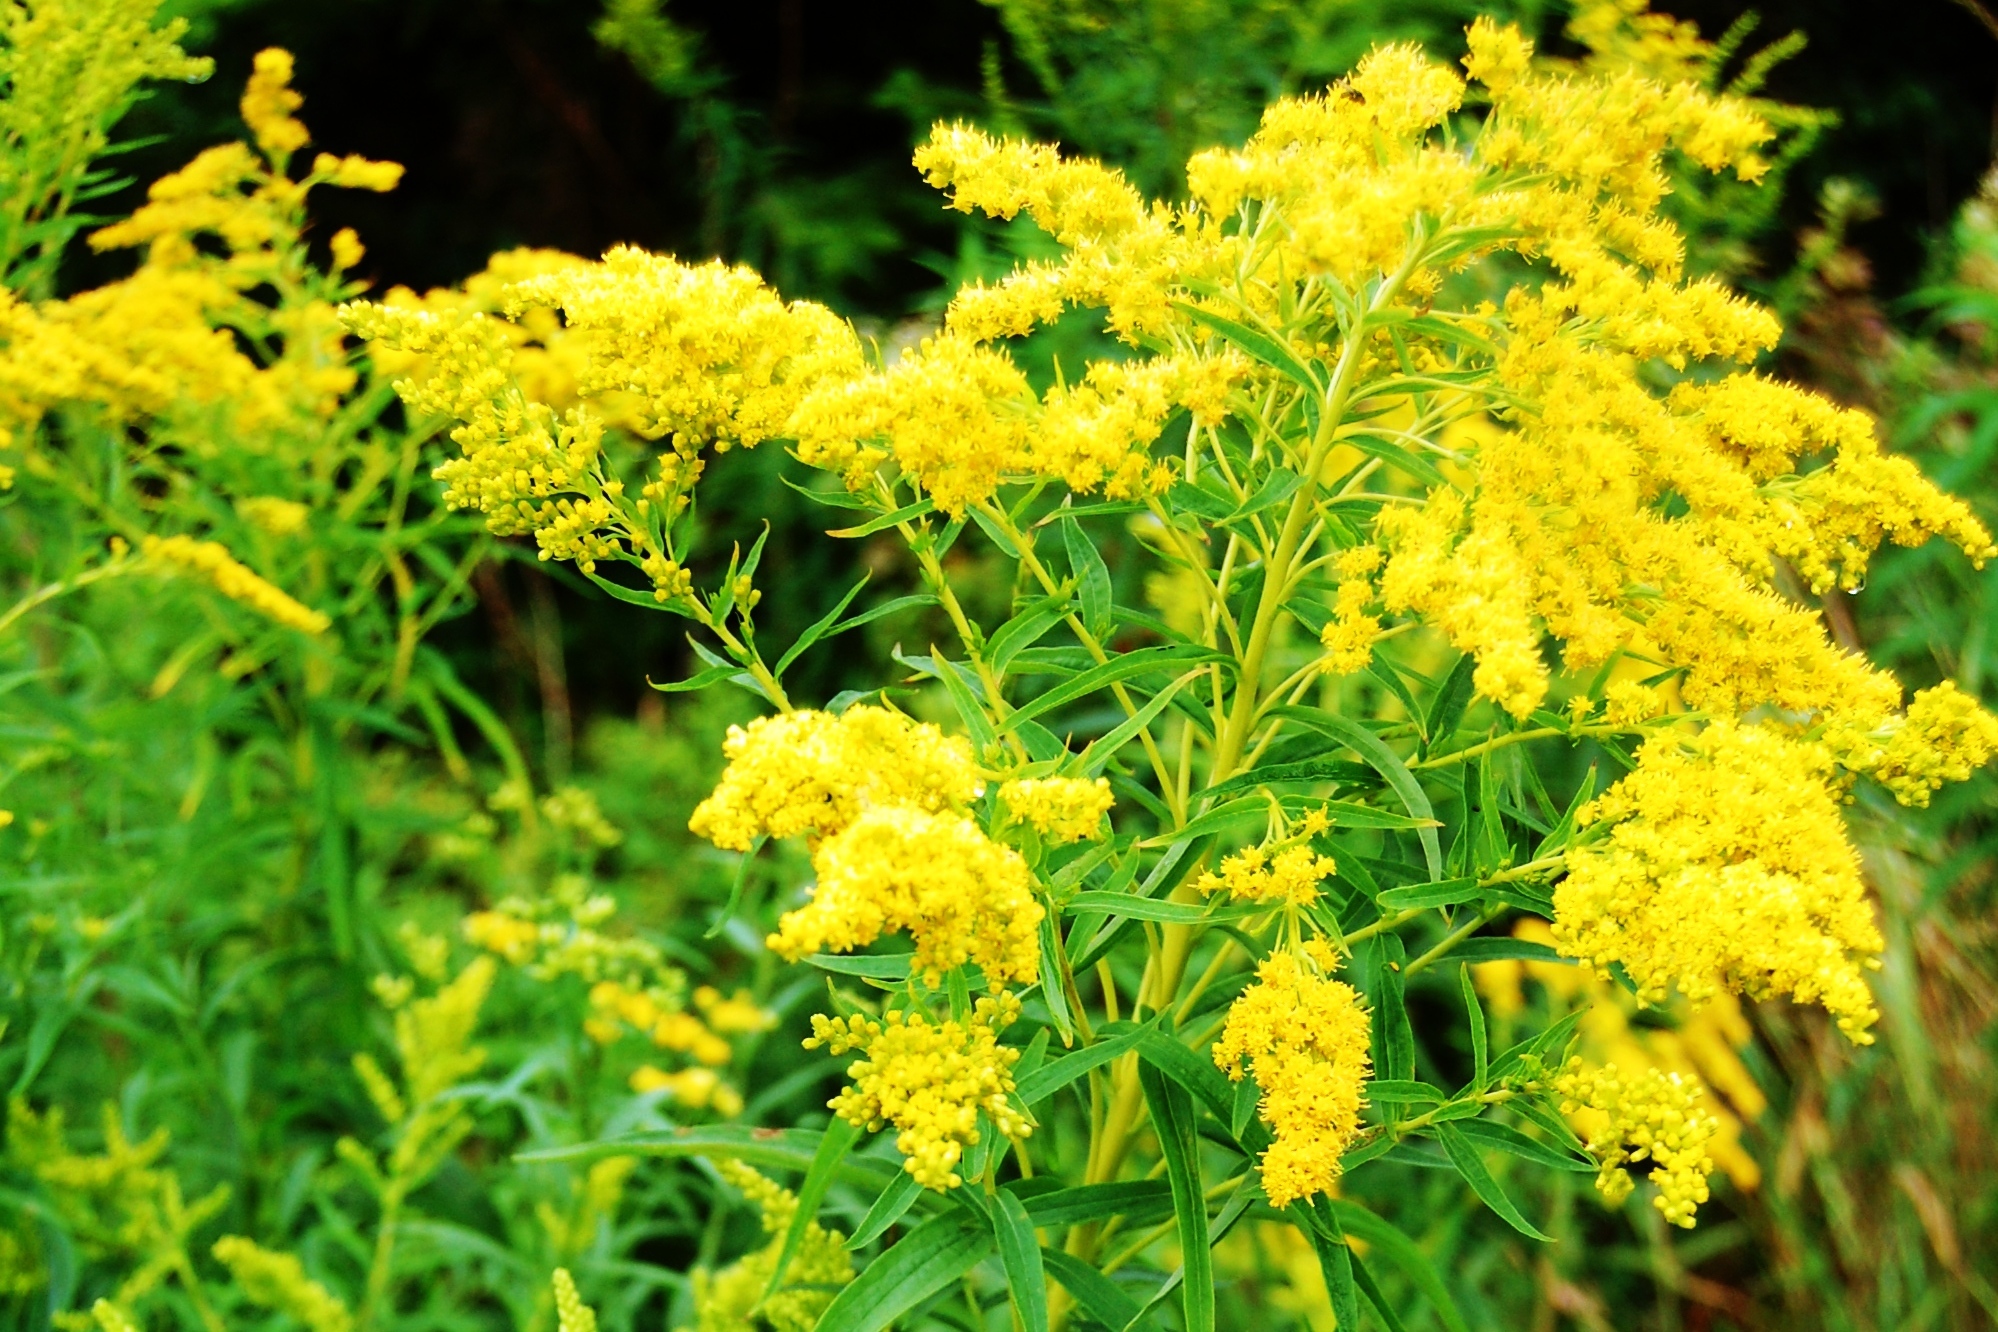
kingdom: Plantae
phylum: Tracheophyta
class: Magnoliopsida
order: Asterales
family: Asteraceae
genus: Solidago
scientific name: Solidago canadensis
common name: Canada goldenrod
